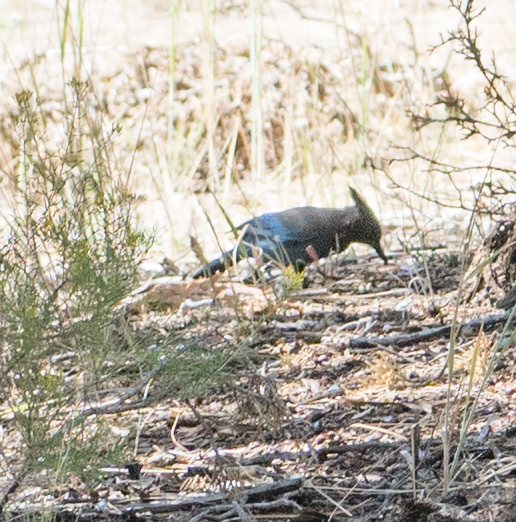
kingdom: Animalia
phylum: Chordata
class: Aves
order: Passeriformes
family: Corvidae
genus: Cyanocitta
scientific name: Cyanocitta stelleri
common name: Steller's jay
